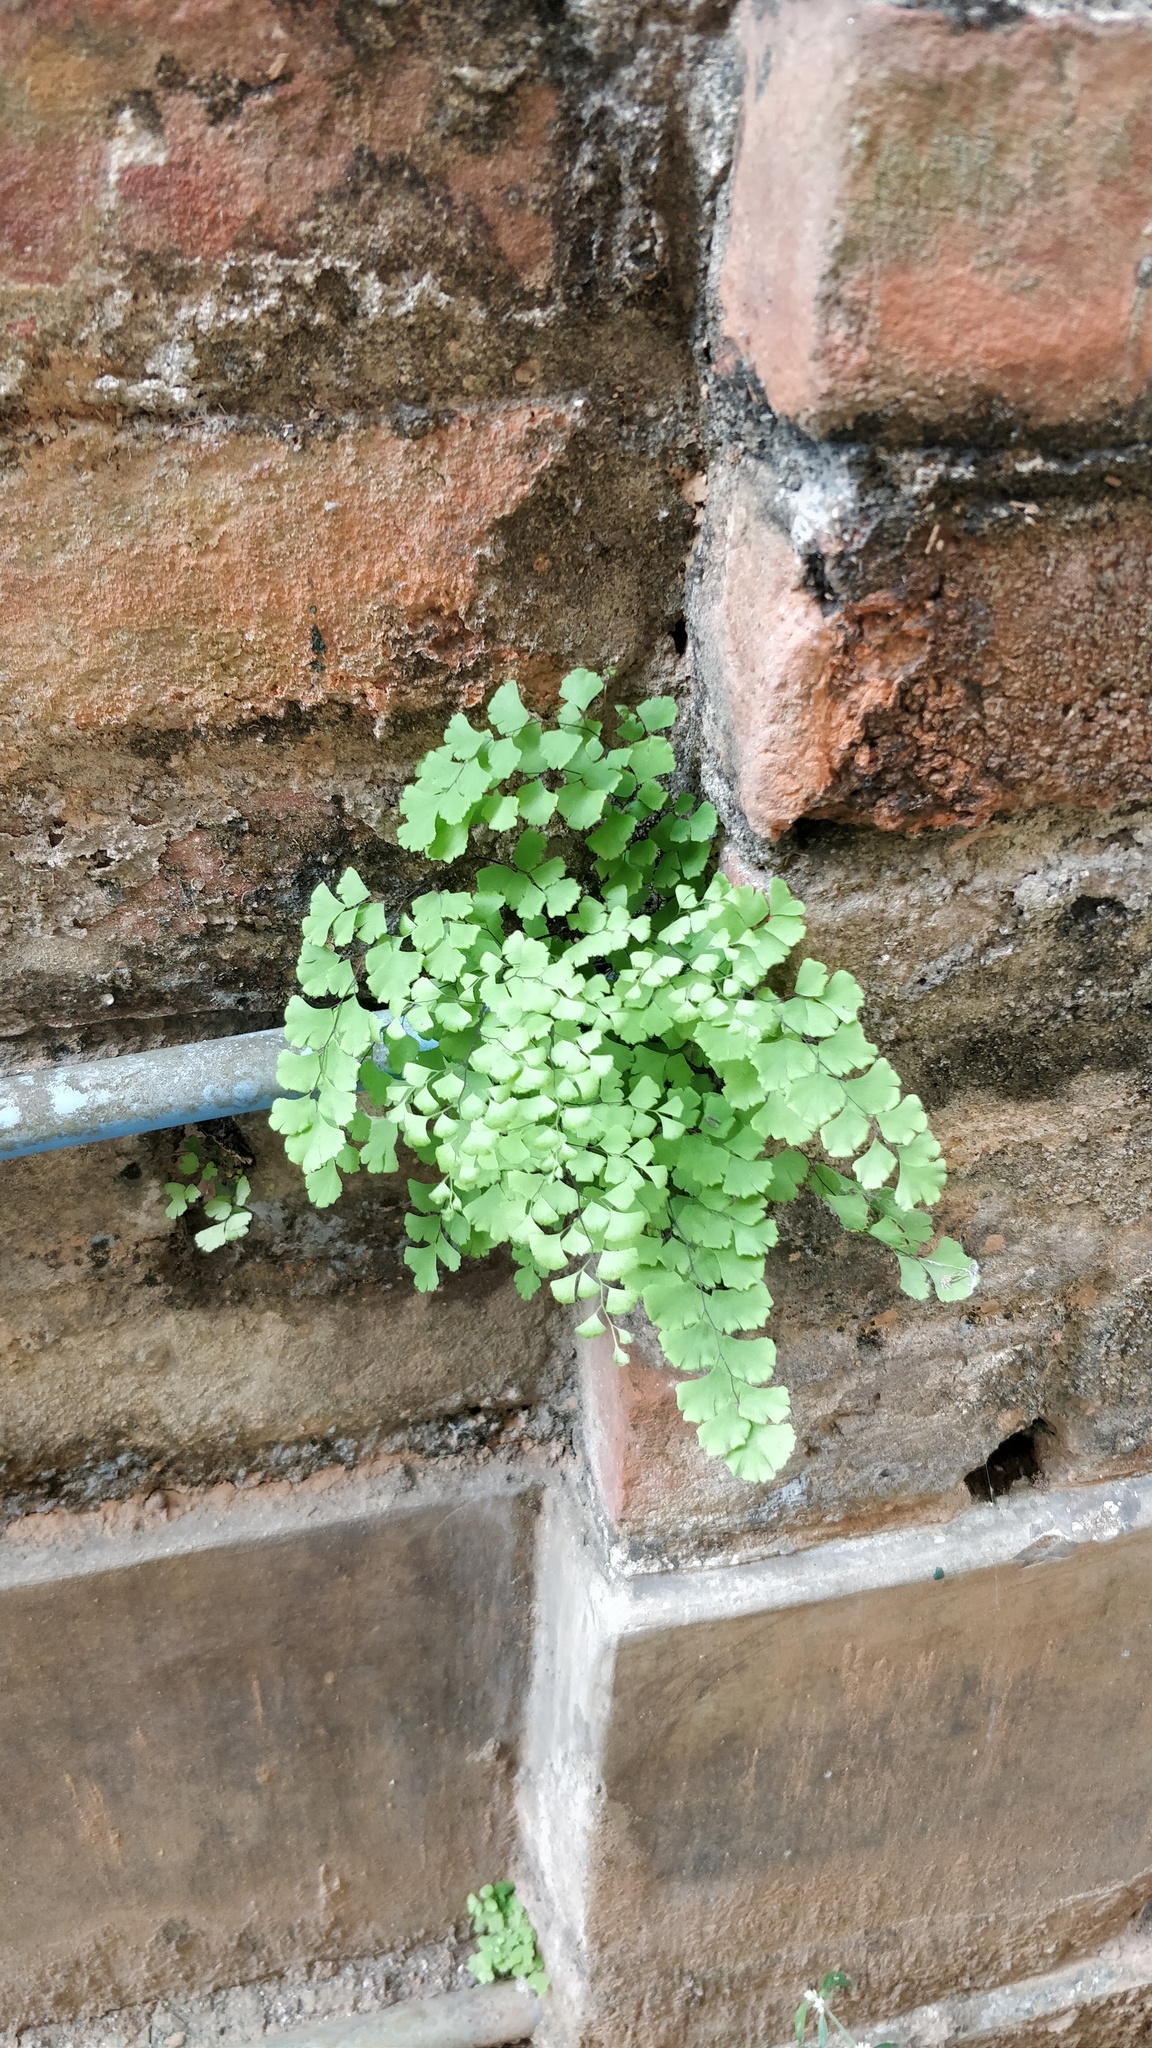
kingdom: Plantae
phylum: Tracheophyta
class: Polypodiopsida
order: Polypodiales
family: Pteridaceae
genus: Adiantum
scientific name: Adiantum capillus-veneris
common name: Maidenhair fern
